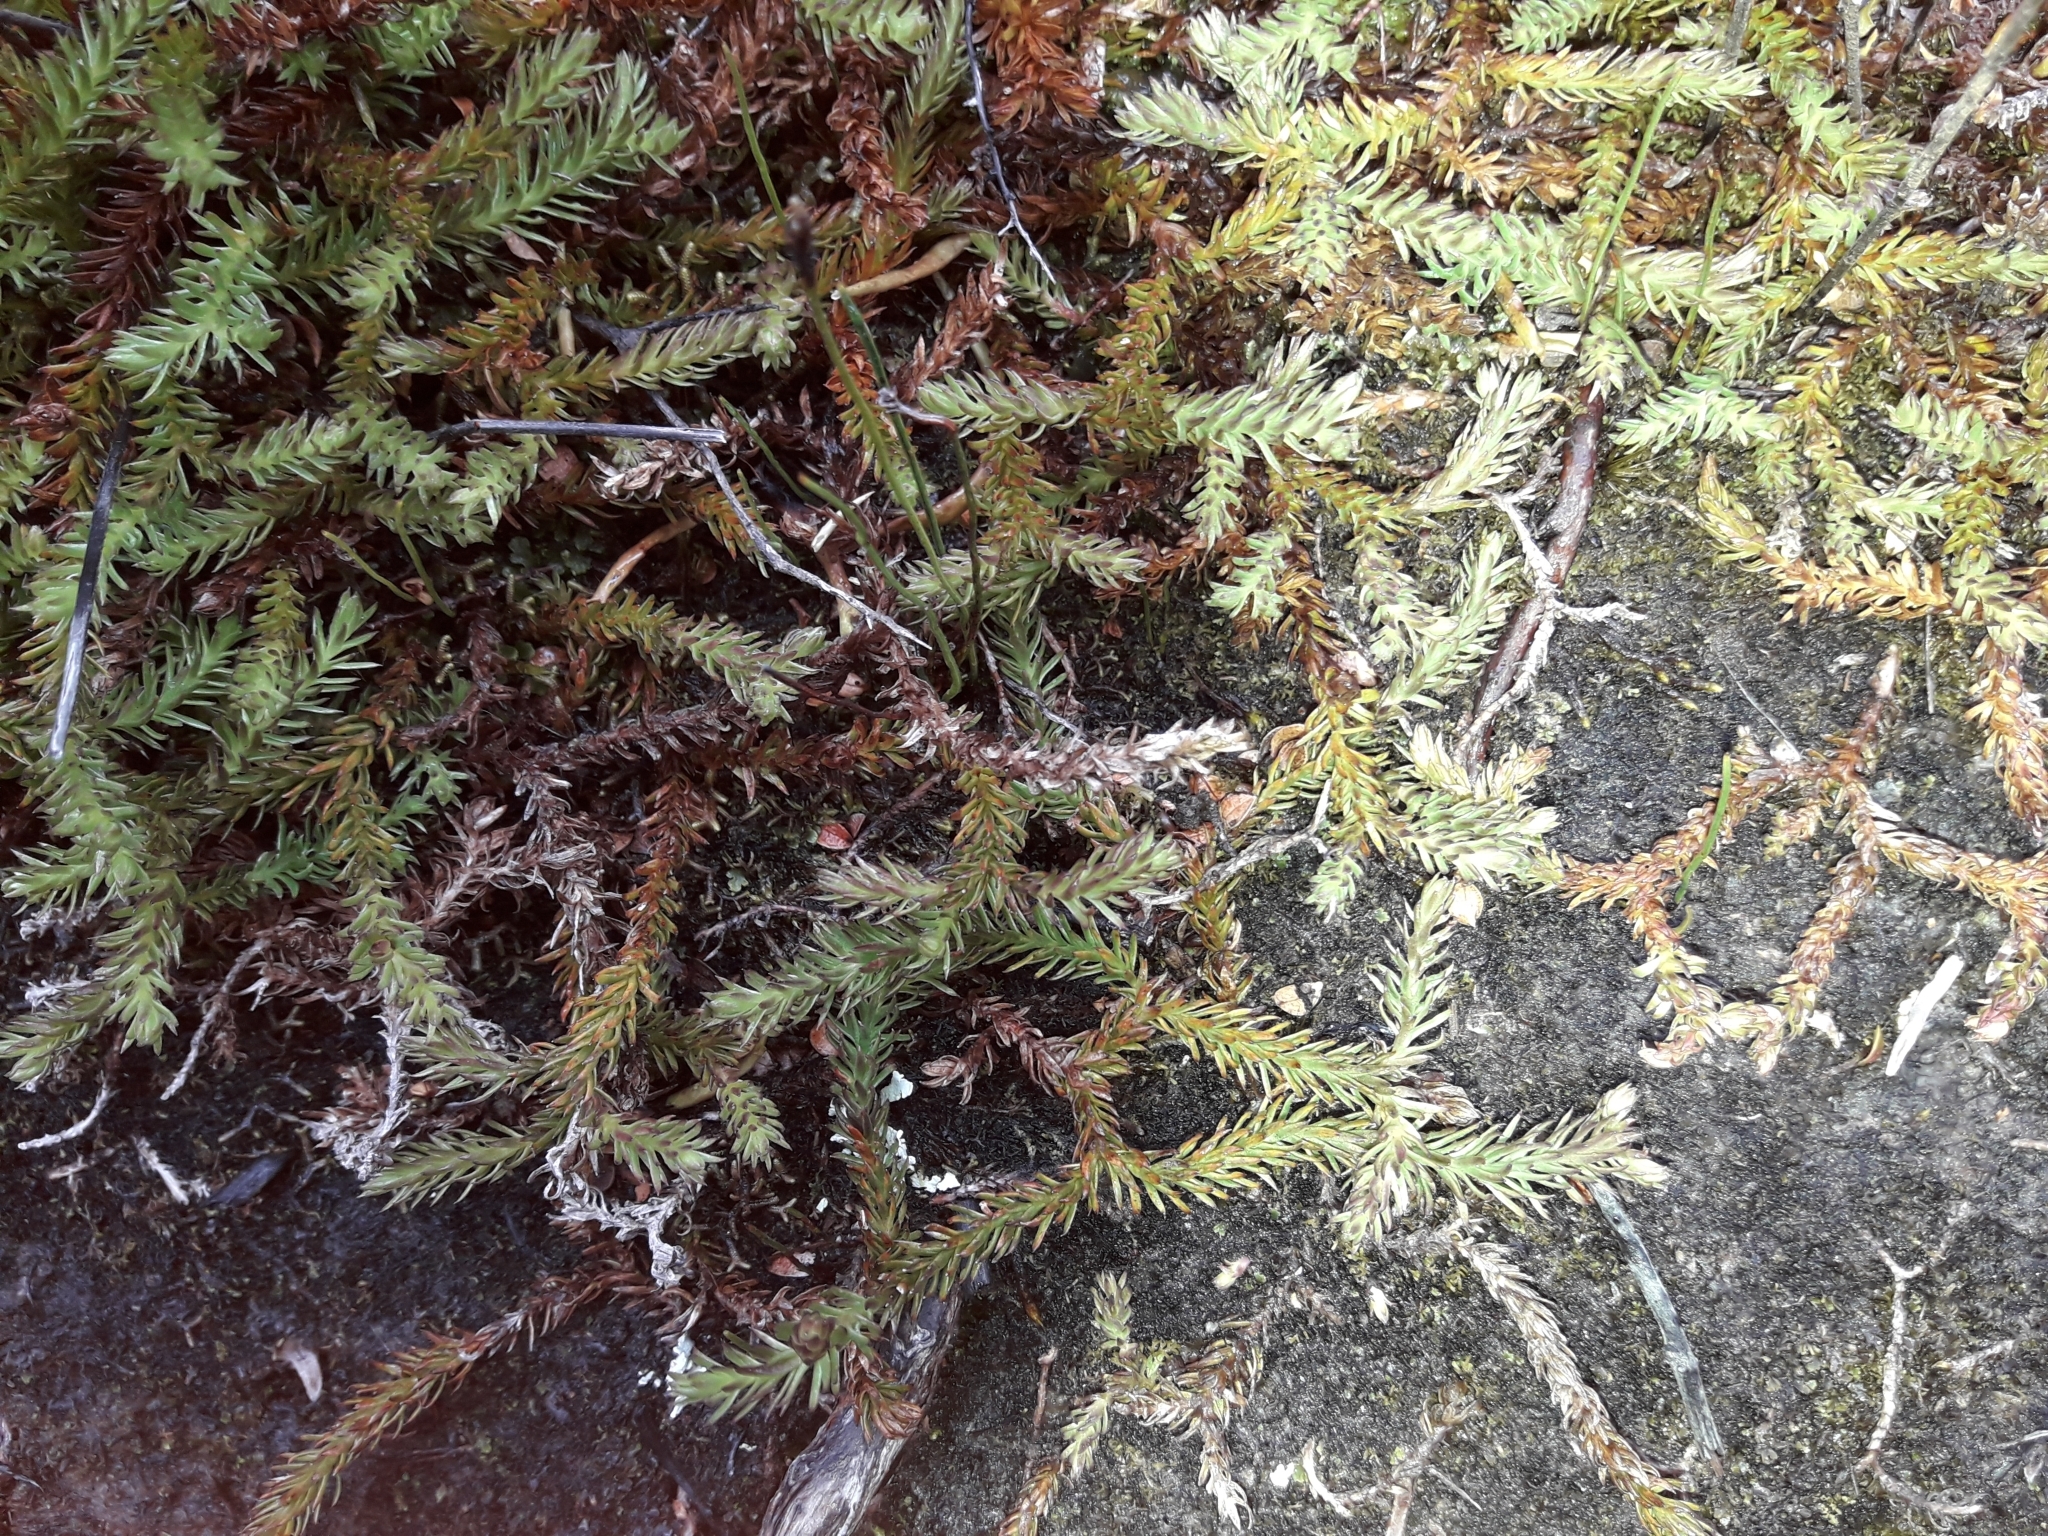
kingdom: Plantae
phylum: Tracheophyta
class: Lycopodiopsida
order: Lycopodiales
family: Lycopodiaceae
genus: Lateristachys
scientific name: Lateristachys diffusa
